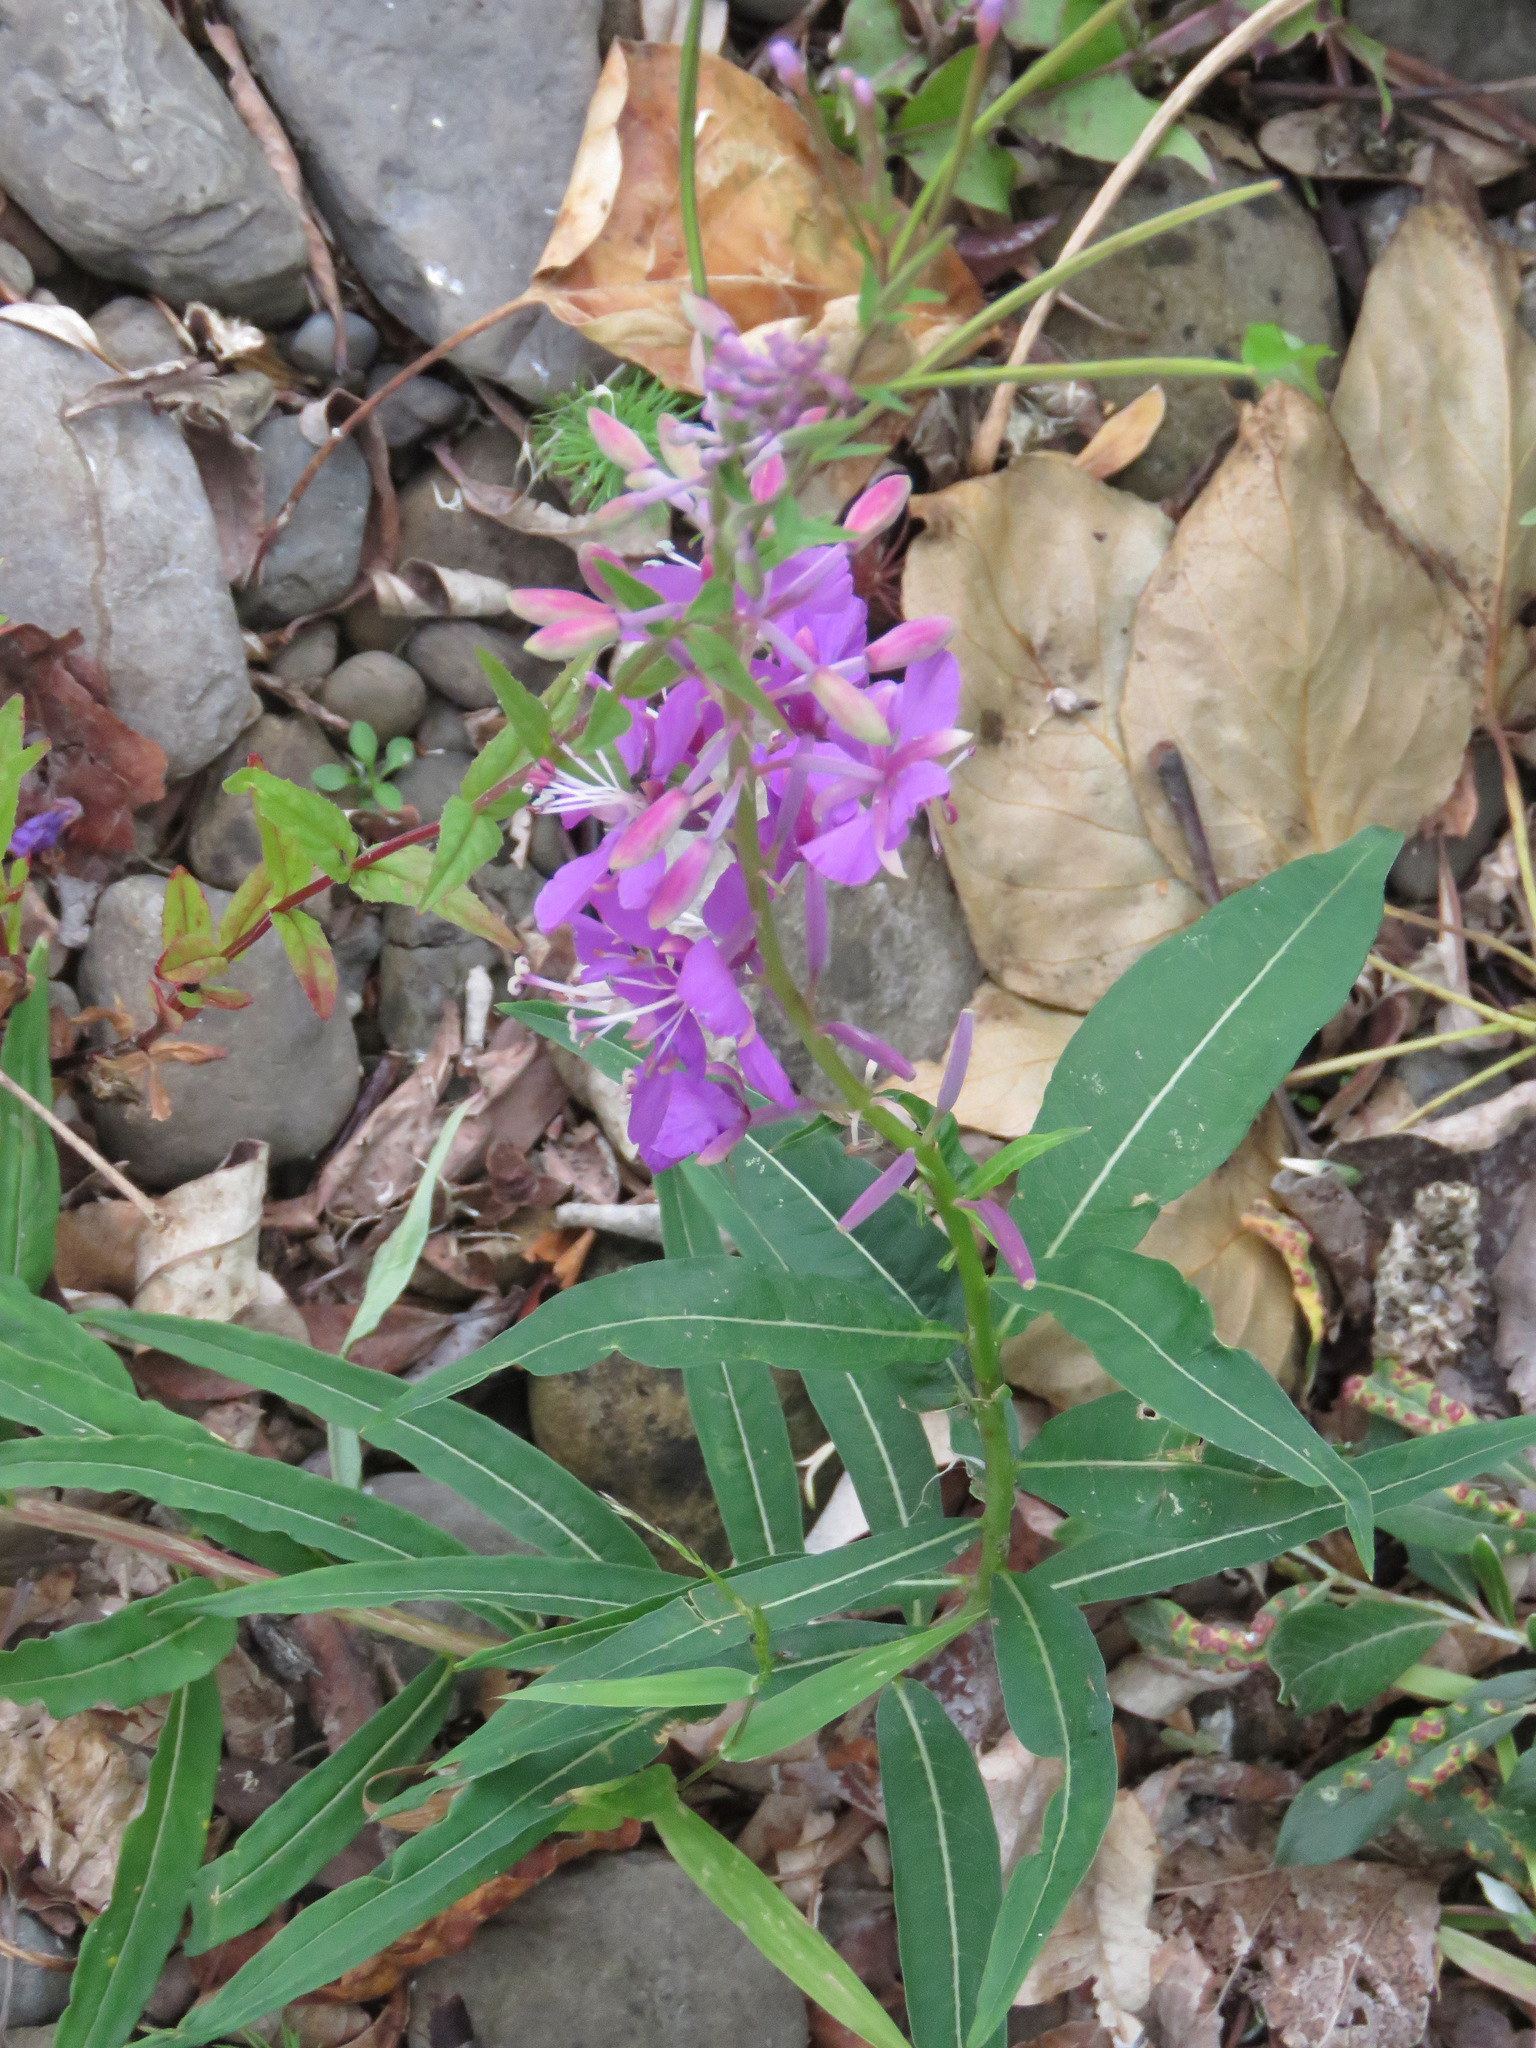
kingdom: Plantae
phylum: Tracheophyta
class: Magnoliopsida
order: Myrtales
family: Onagraceae
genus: Chamaenerion
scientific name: Chamaenerion angustifolium
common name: Fireweed
